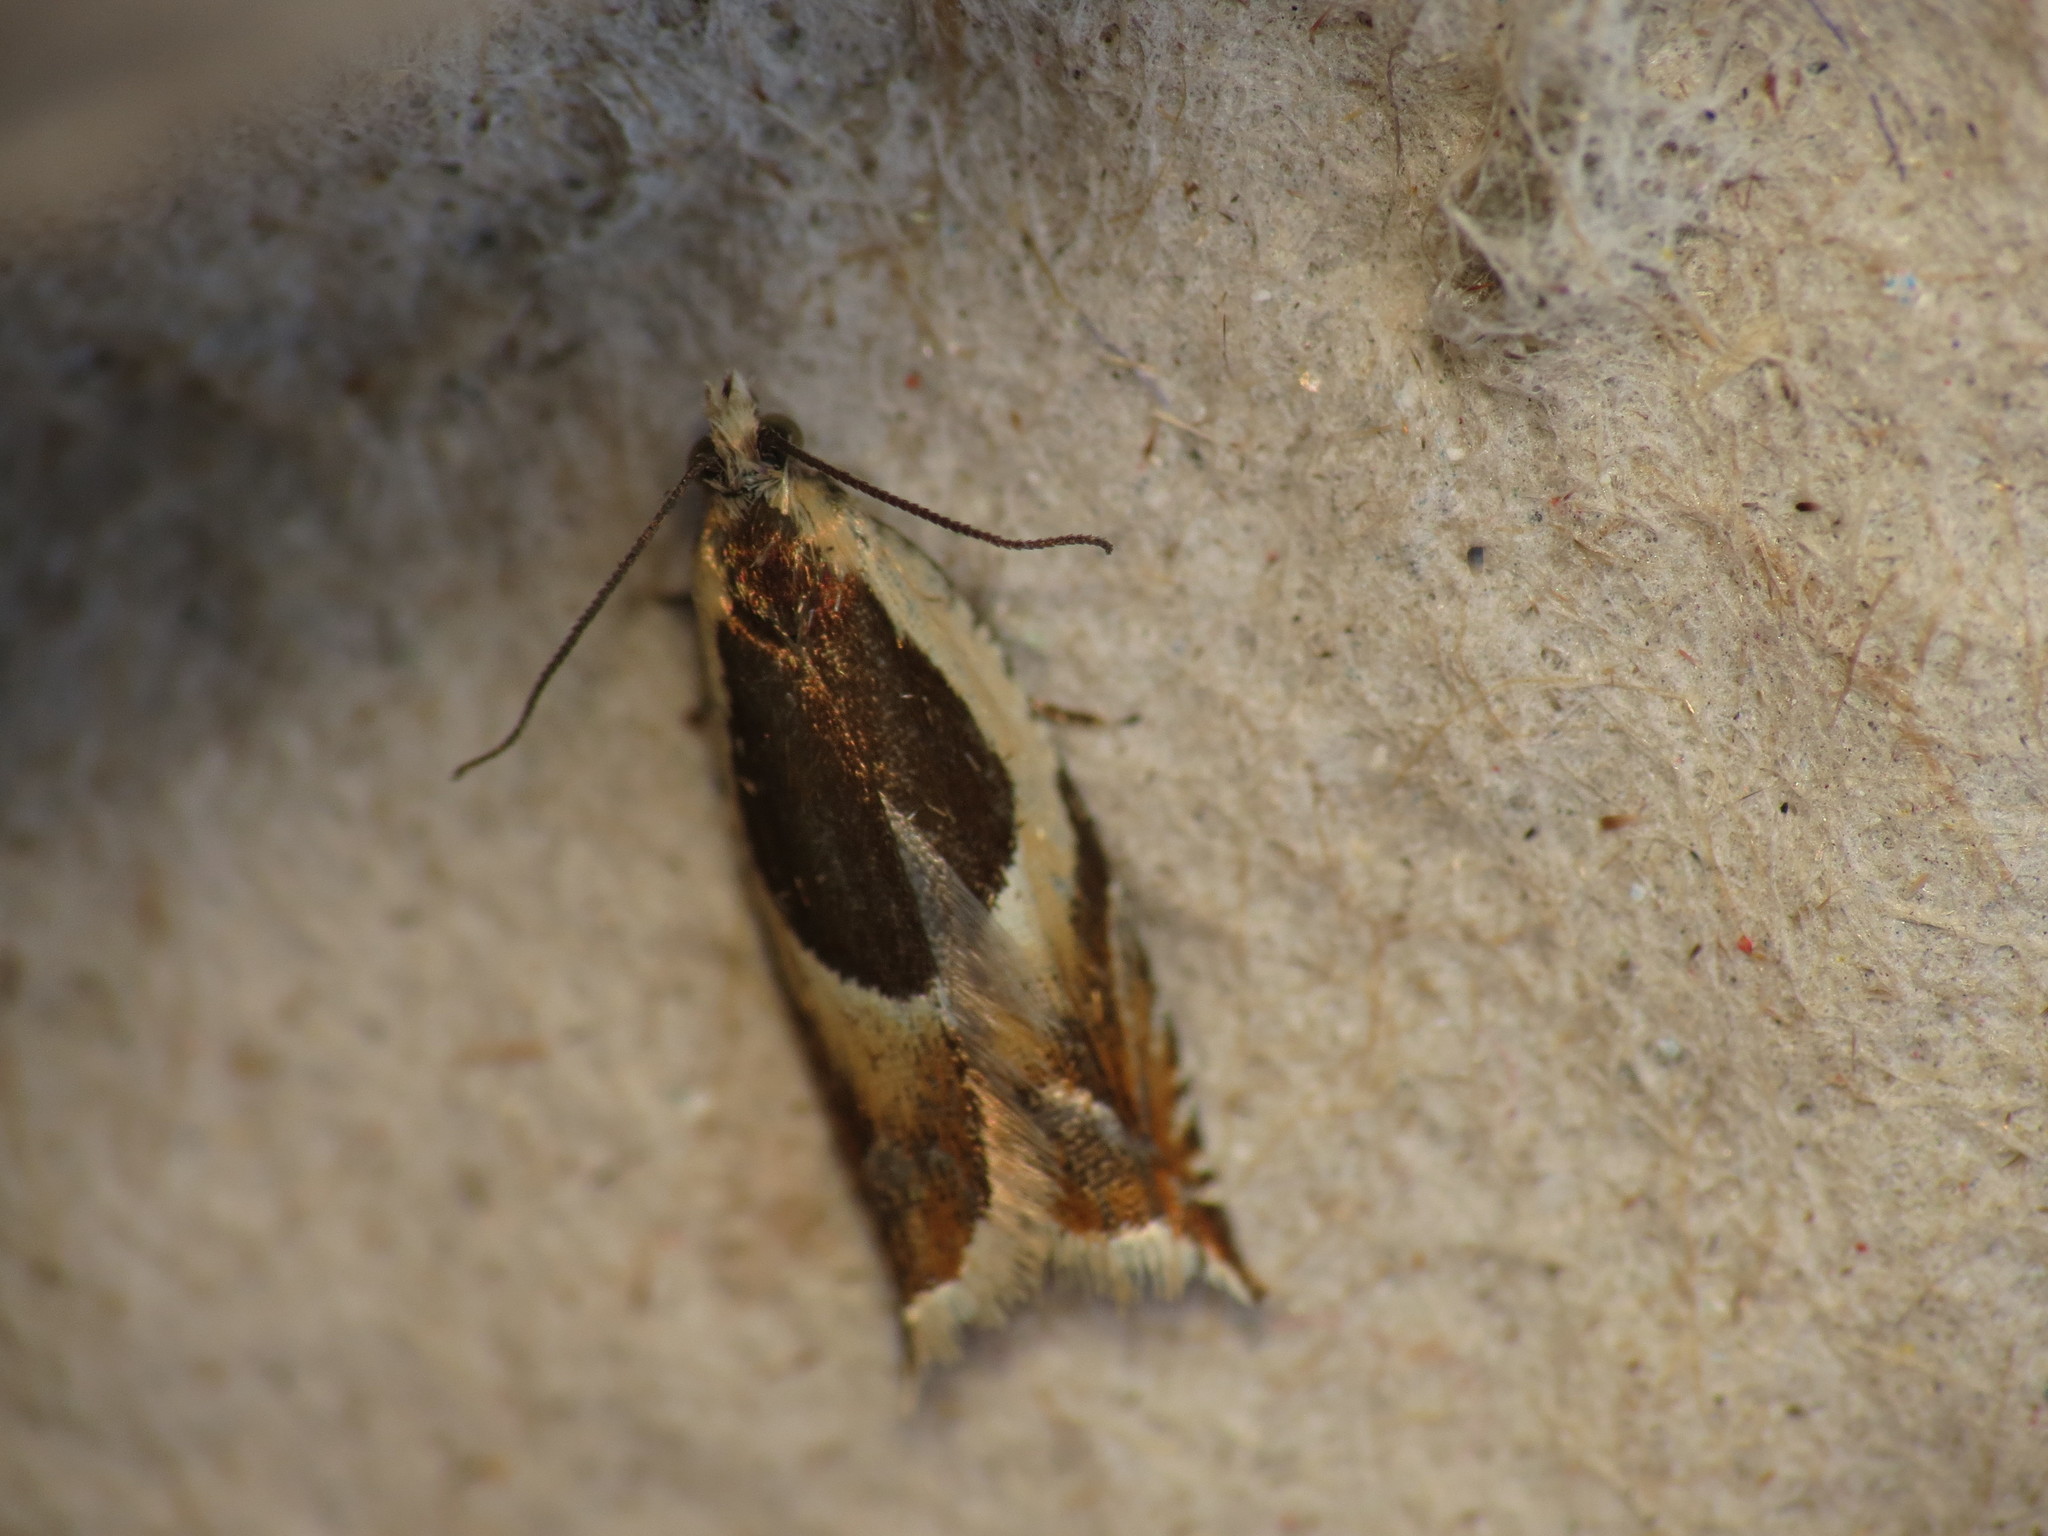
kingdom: Animalia
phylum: Arthropoda
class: Insecta
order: Lepidoptera
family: Tortricidae
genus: Ancylis
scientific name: Ancylis badiana
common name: Common roller
